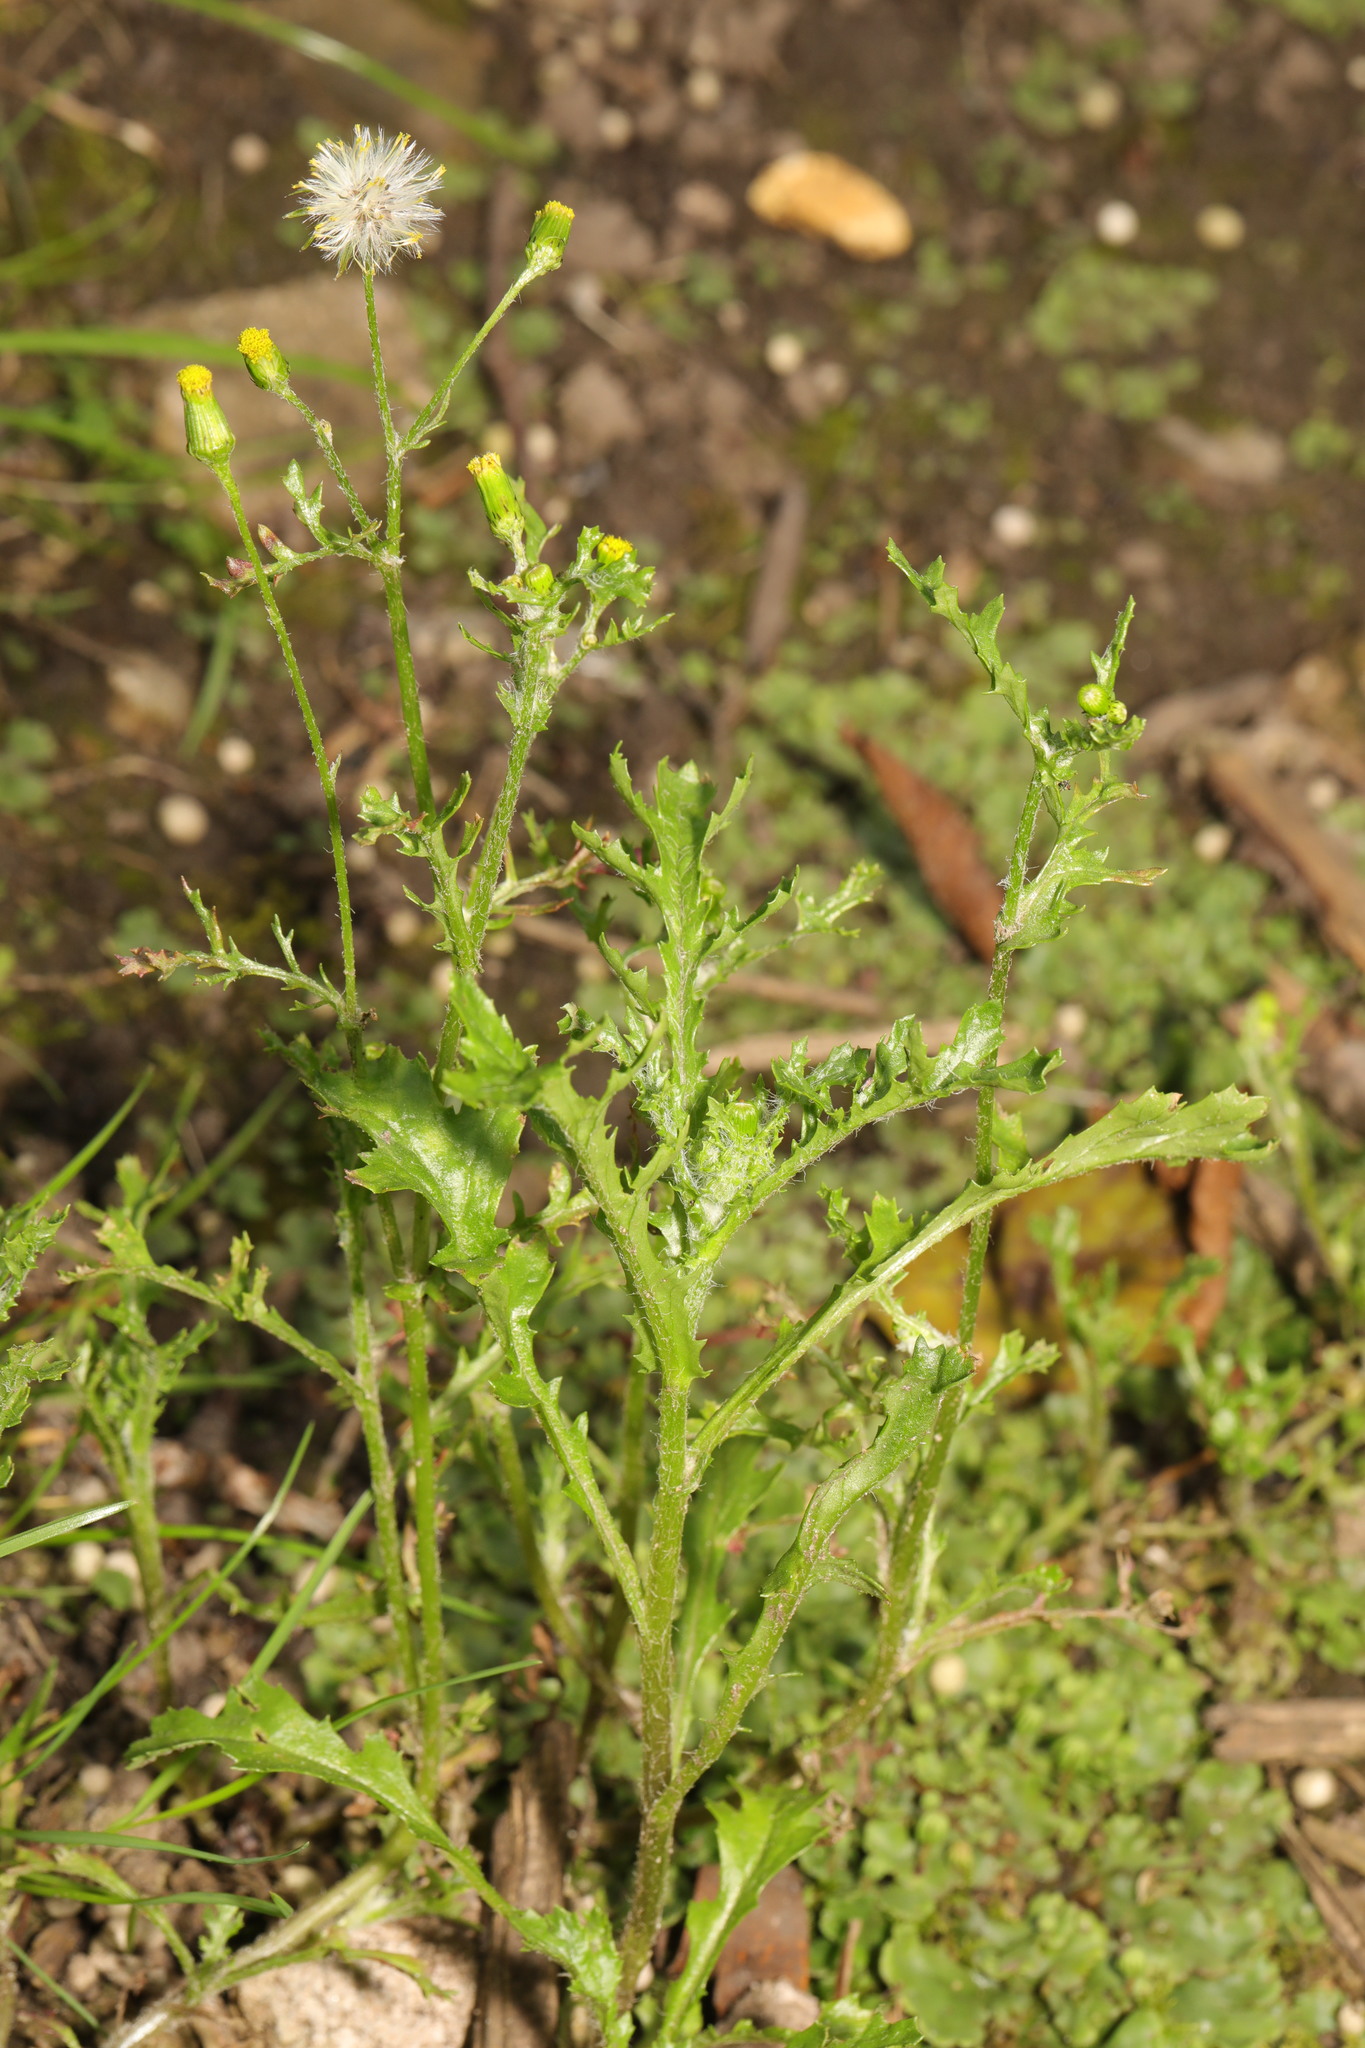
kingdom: Plantae
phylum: Tracheophyta
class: Magnoliopsida
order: Asterales
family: Asteraceae
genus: Senecio
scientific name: Senecio vulgaris
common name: Old-man-in-the-spring
